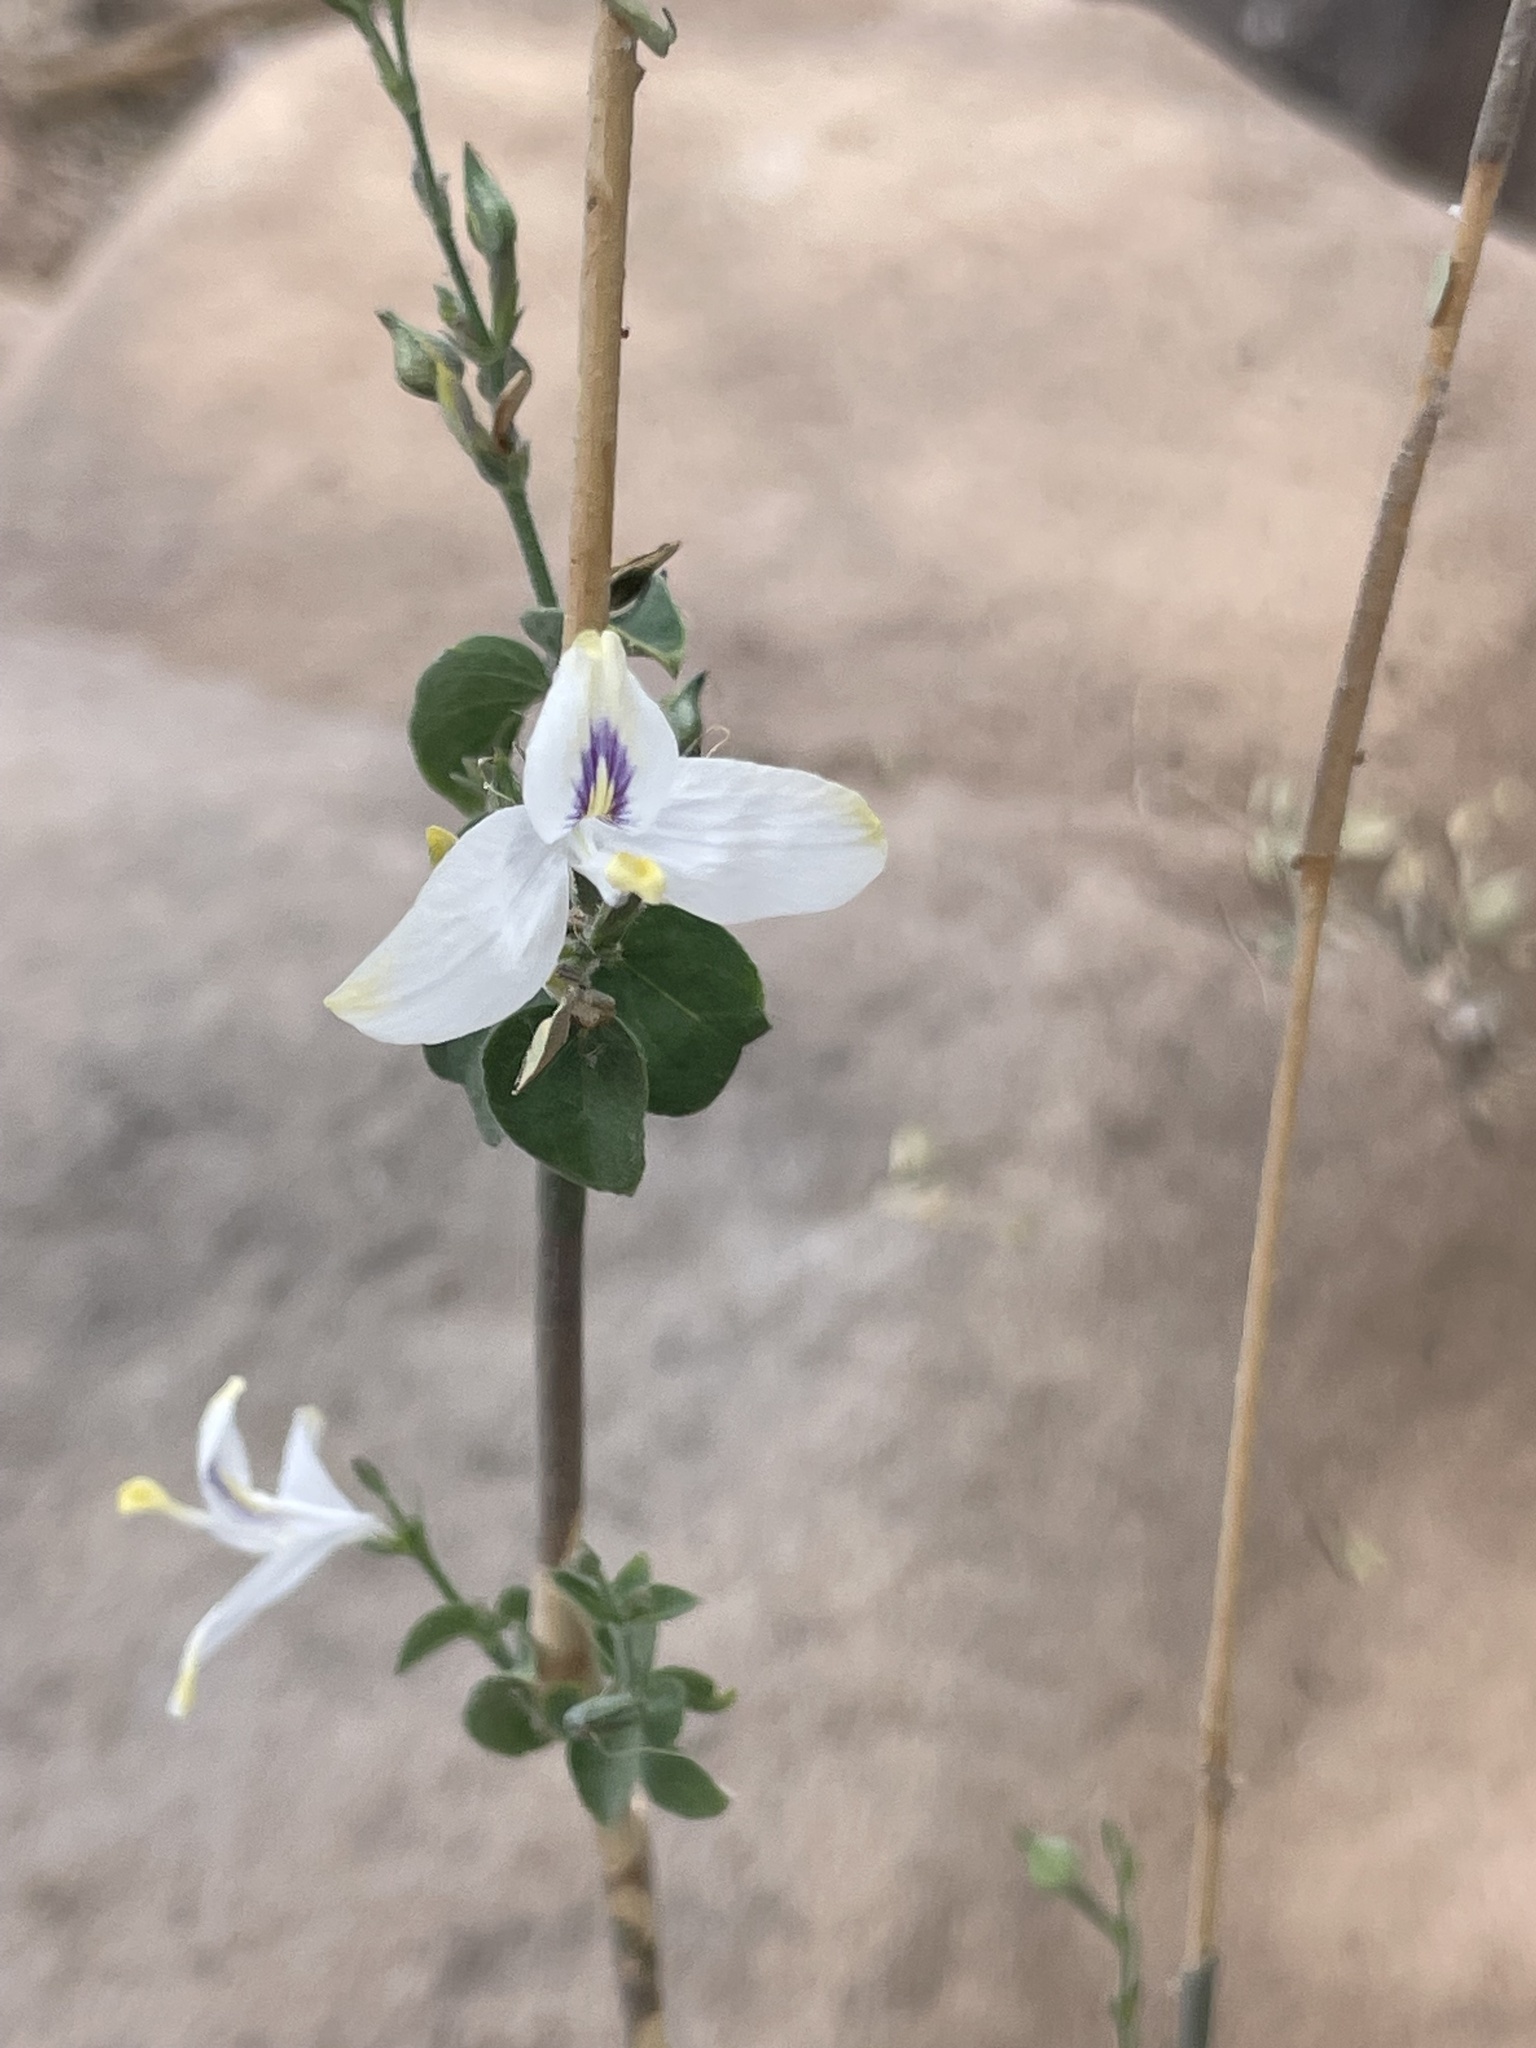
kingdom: Plantae
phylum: Tracheophyta
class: Magnoliopsida
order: Lamiales
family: Acanthaceae
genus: Carlowrightia
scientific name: Carlowrightia arizonica
